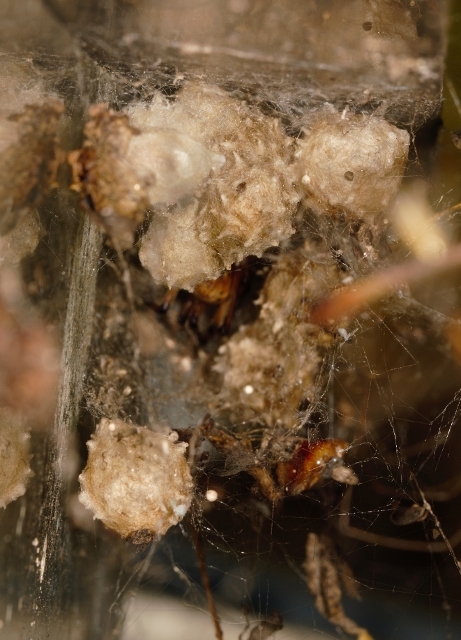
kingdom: Animalia
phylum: Arthropoda
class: Arachnida
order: Araneae
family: Theridiidae
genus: Latrodectus
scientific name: Latrodectus geometricus
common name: Brown widow spider
